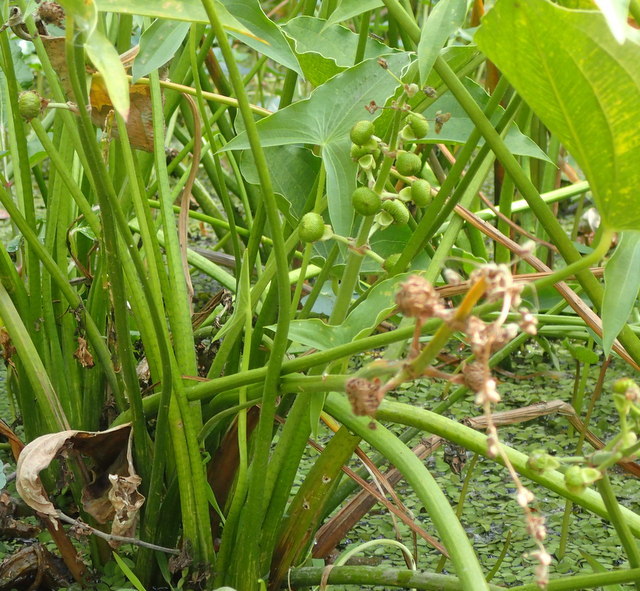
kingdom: Plantae
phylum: Tracheophyta
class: Liliopsida
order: Alismatales
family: Alismataceae
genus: Sagittaria
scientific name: Sagittaria latifolia
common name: Duck-potato
